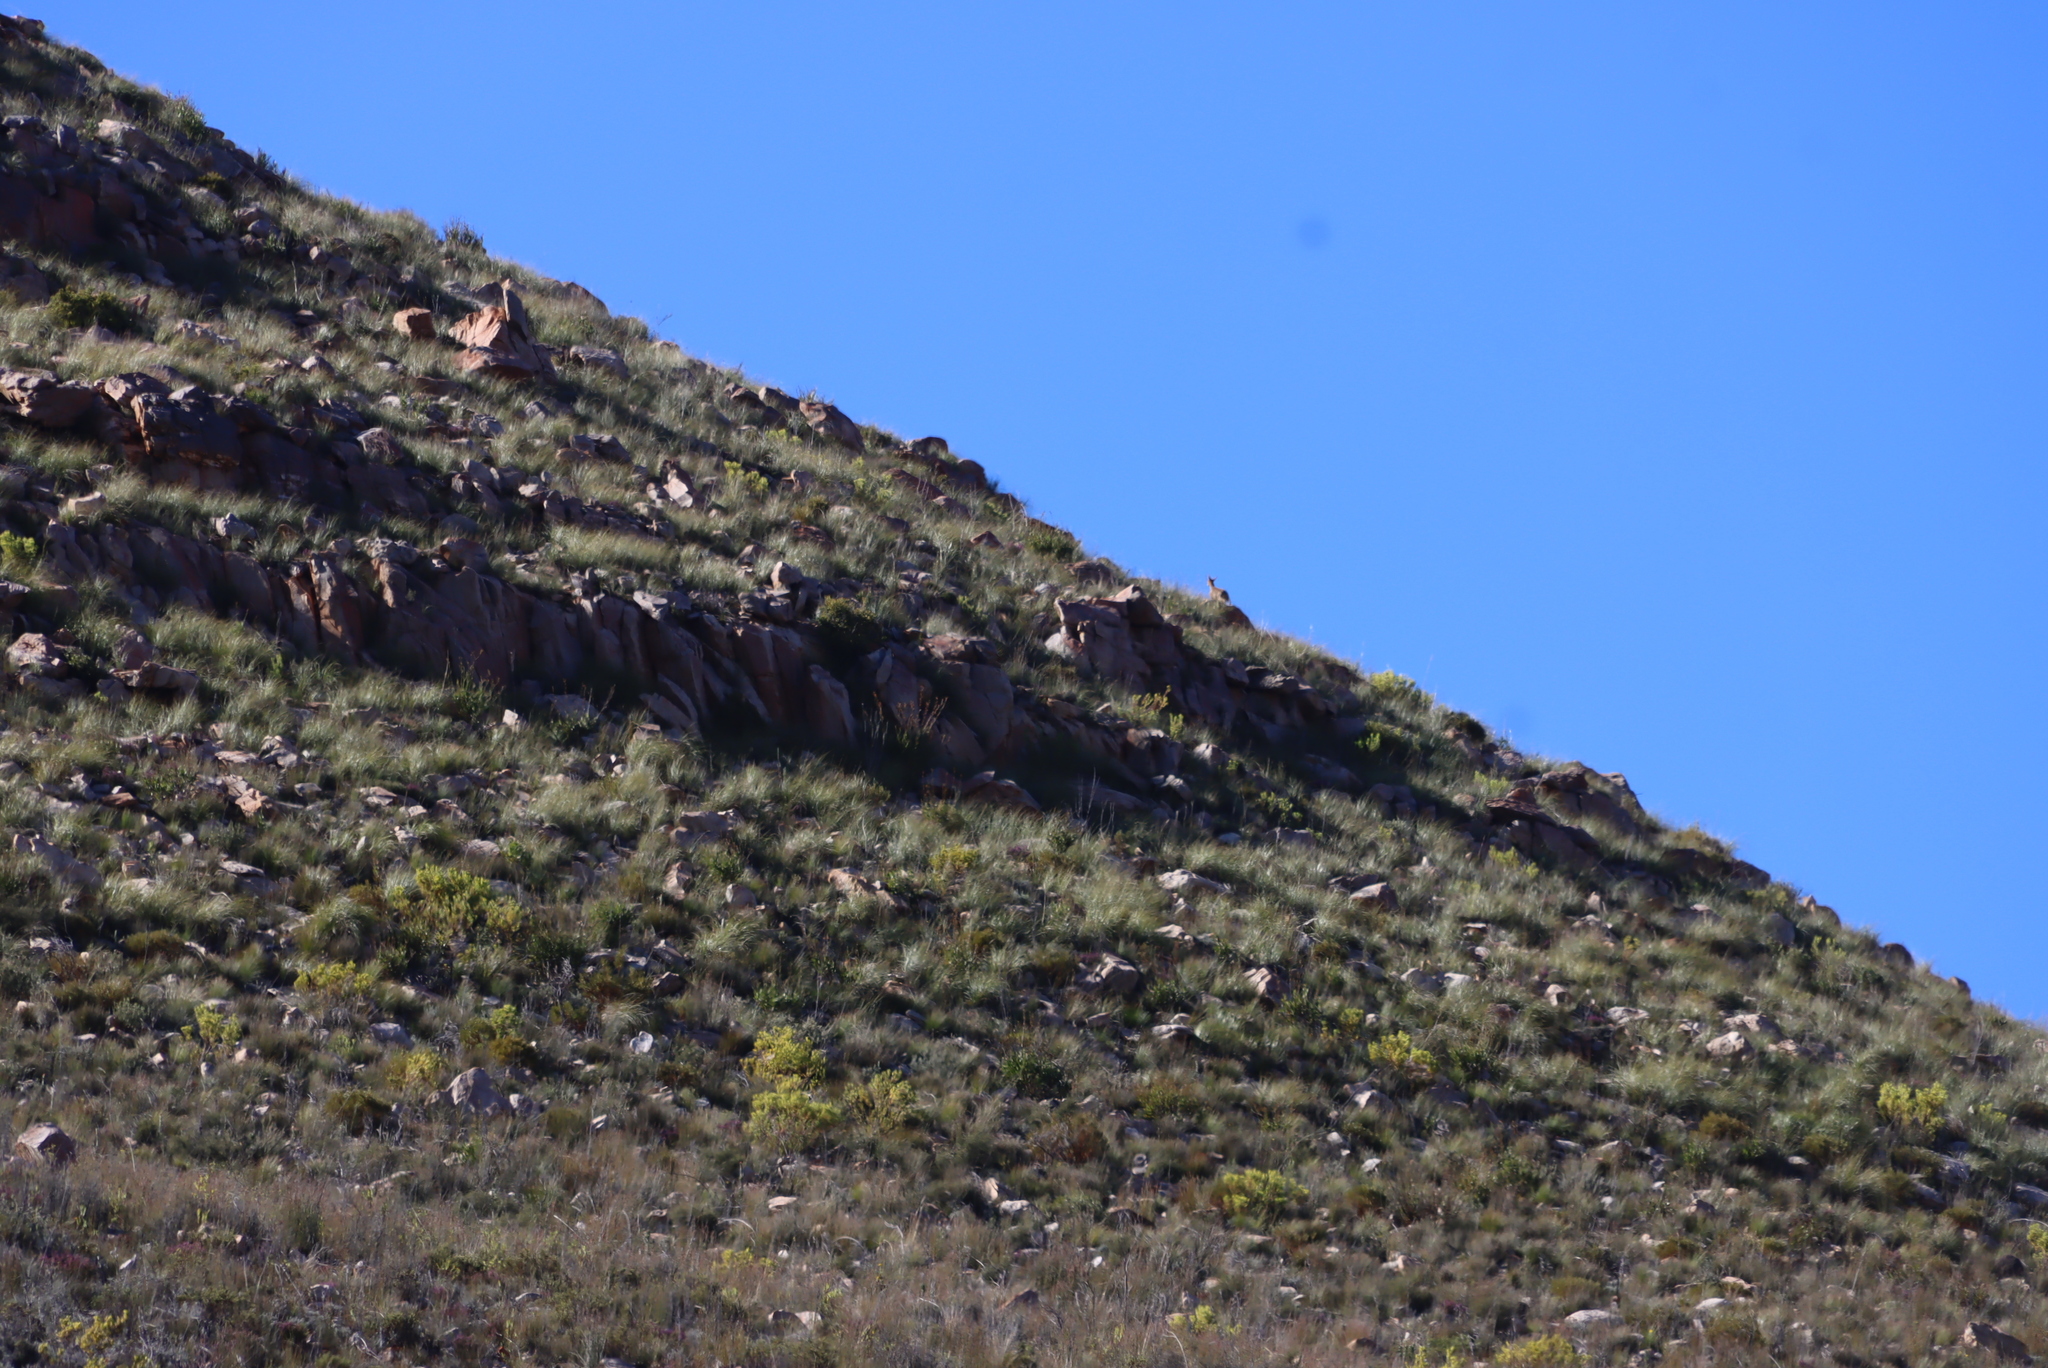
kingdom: Animalia
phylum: Chordata
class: Mammalia
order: Primates
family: Cercopithecidae
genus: Papio
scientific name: Papio ursinus
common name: Chacma baboon
